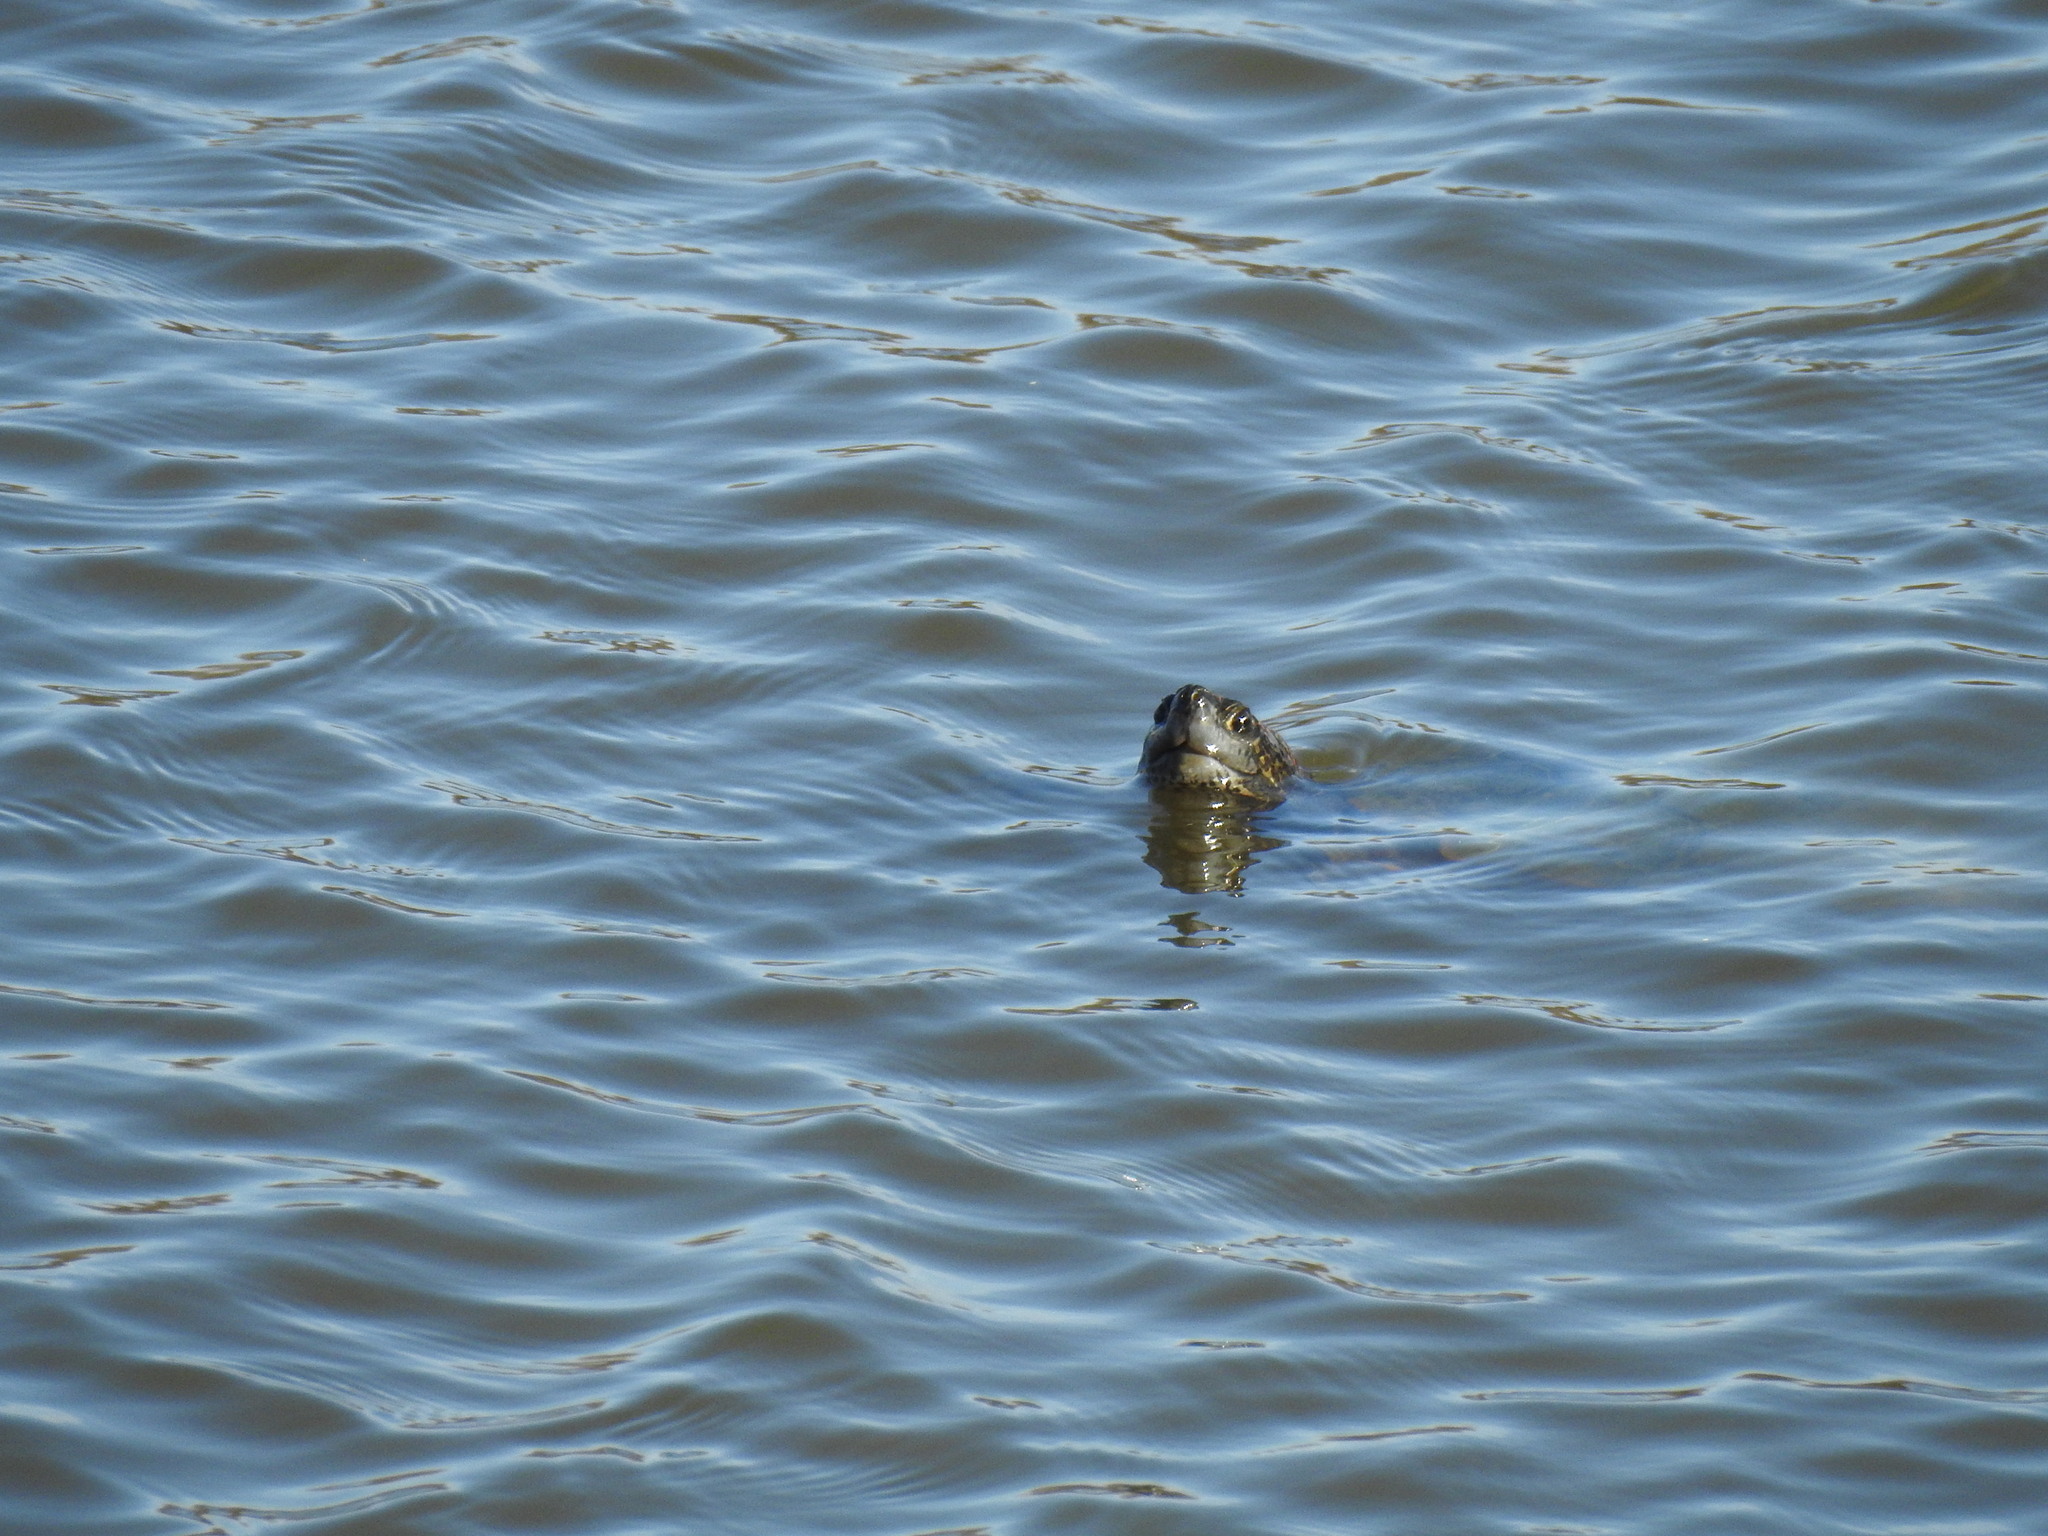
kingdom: Animalia
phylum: Chordata
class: Testudines
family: Geoemydidae
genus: Mauremys
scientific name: Mauremys leprosa
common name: Mediterranean pond turtle
